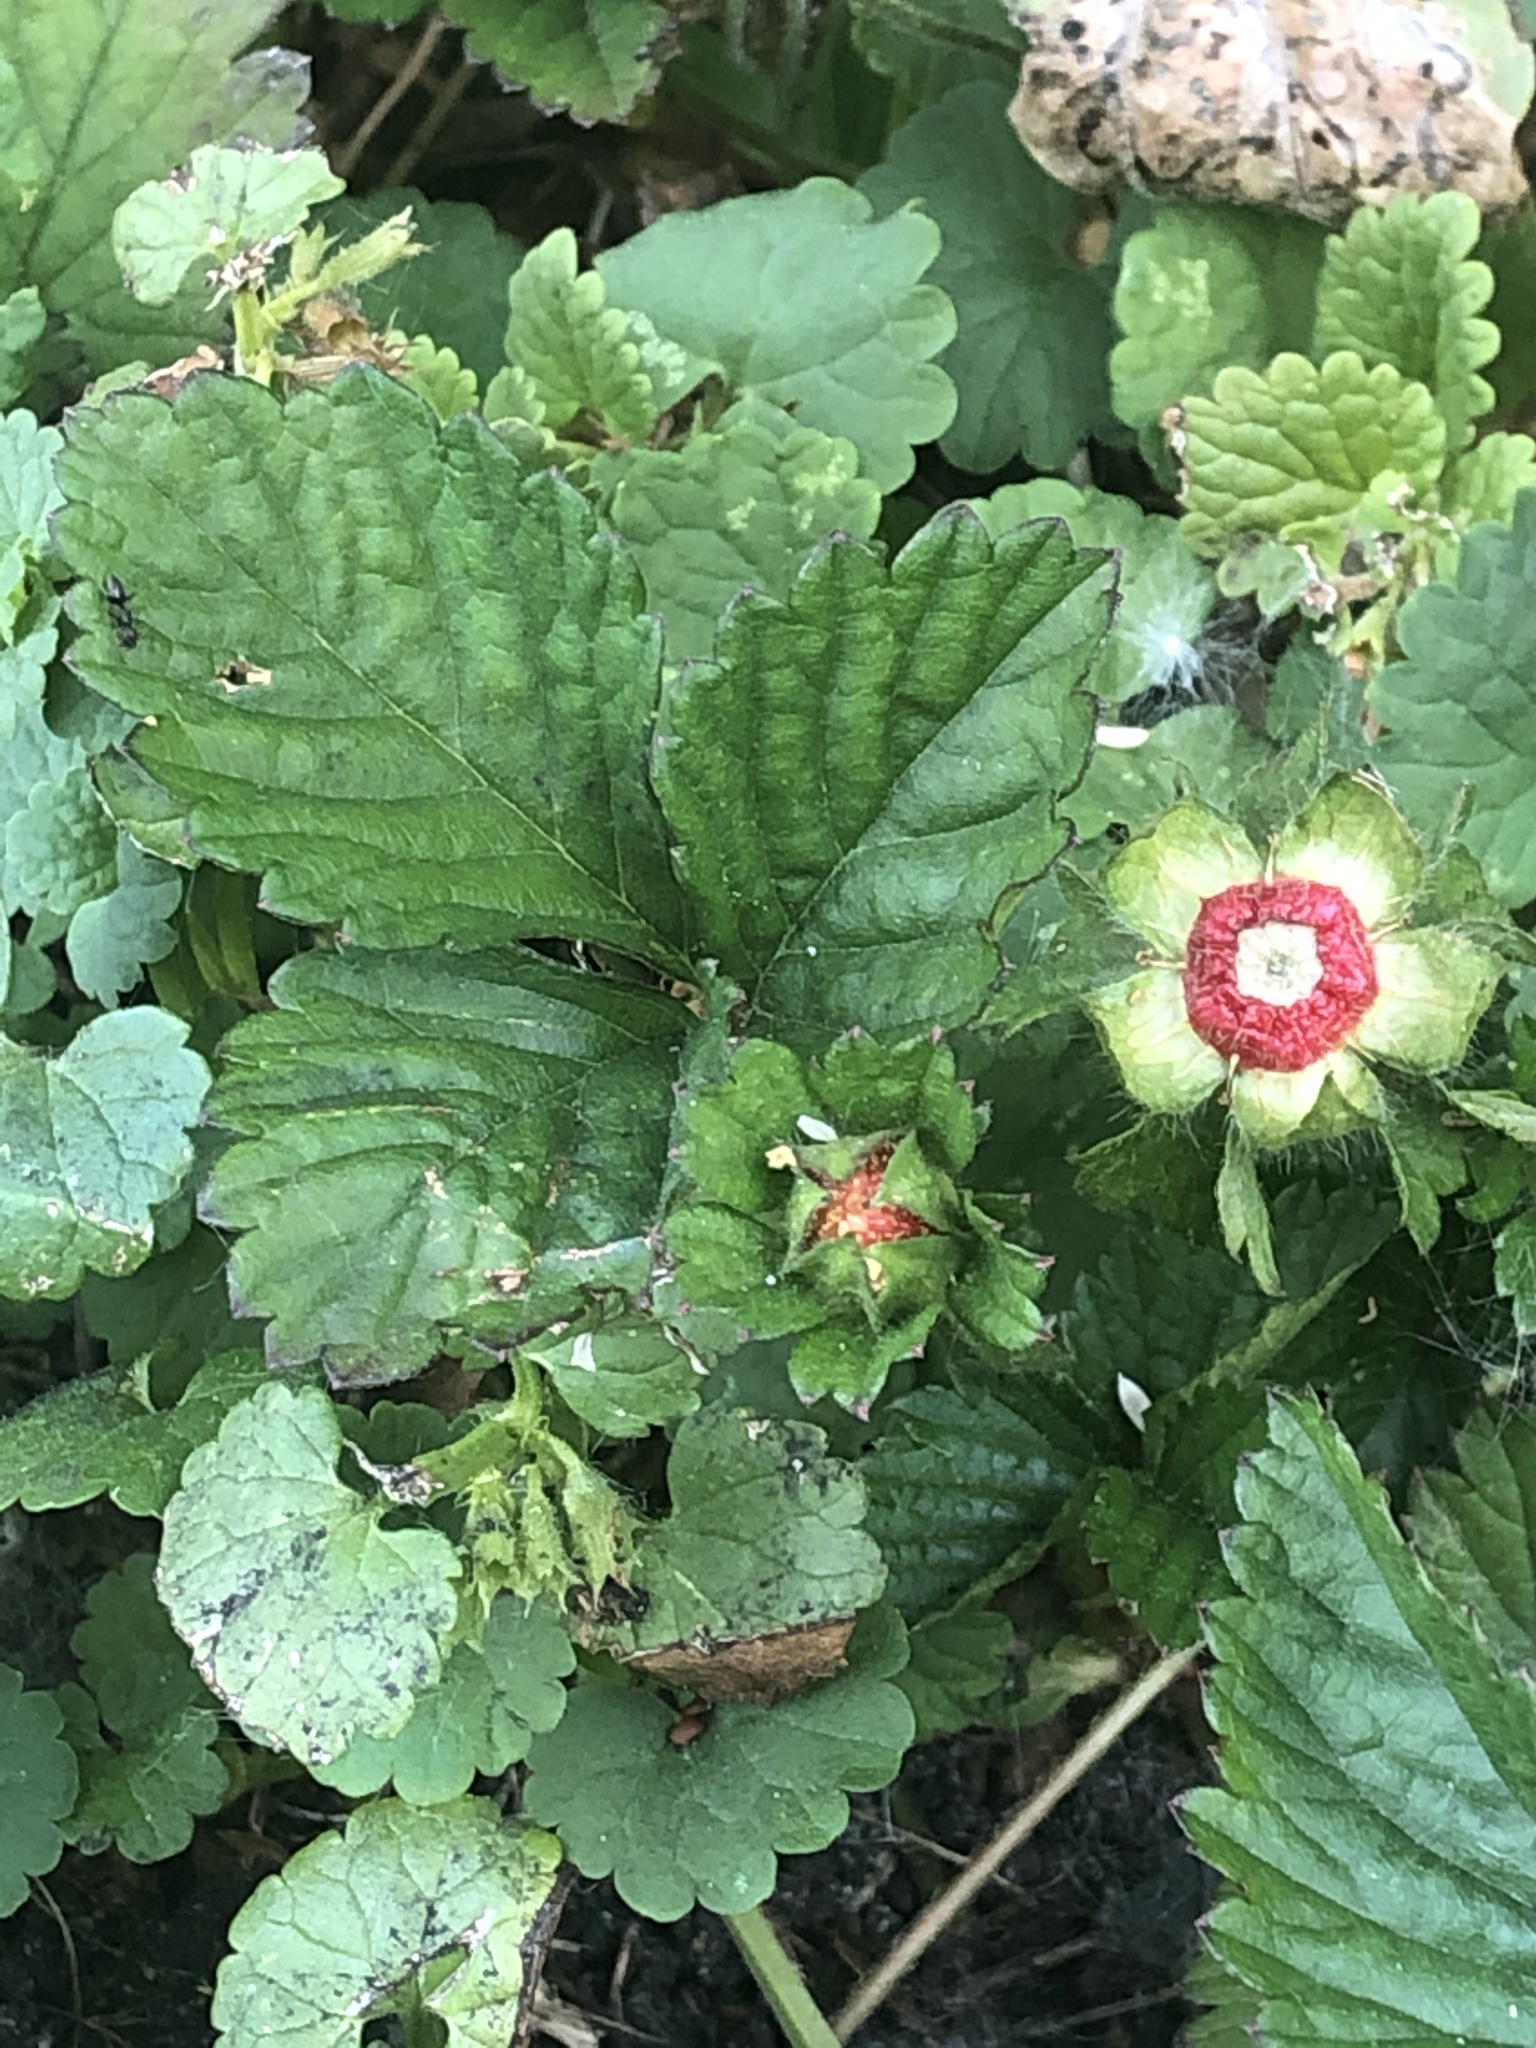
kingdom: Plantae
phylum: Tracheophyta
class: Magnoliopsida
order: Rosales
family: Rosaceae
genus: Potentilla
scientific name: Potentilla indica
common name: Yellow-flowered strawberry
